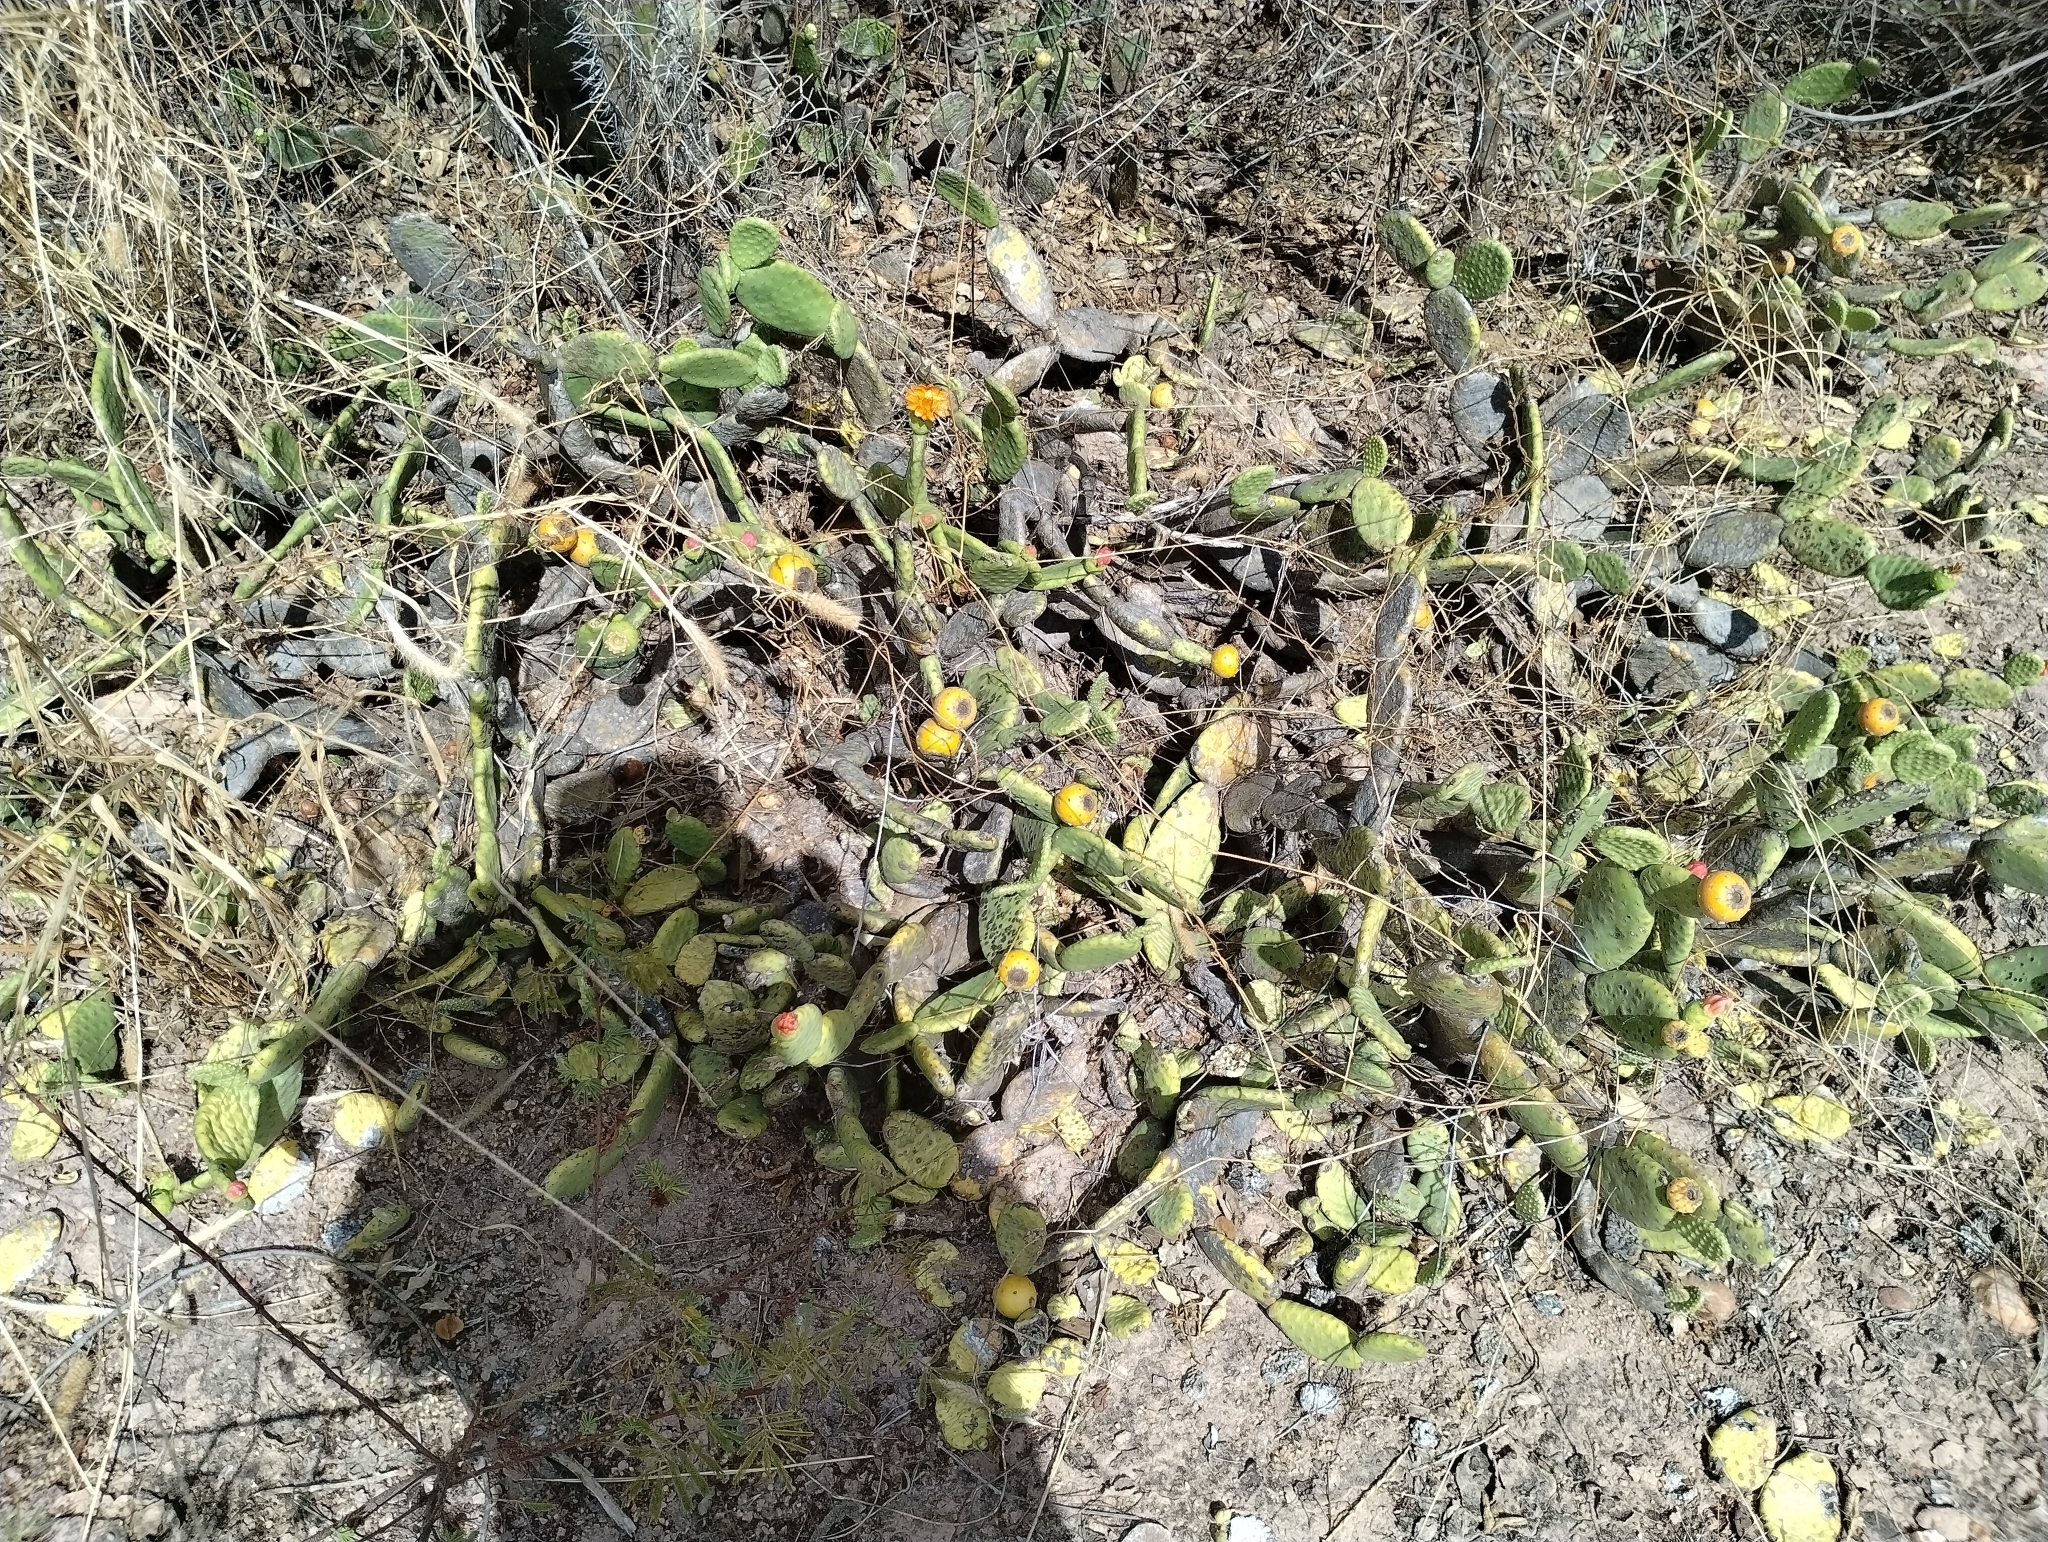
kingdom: Plantae
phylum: Tracheophyta
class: Magnoliopsida
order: Caryophyllales
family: Cactaceae
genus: Tacinga
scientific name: Tacinga inamoena
